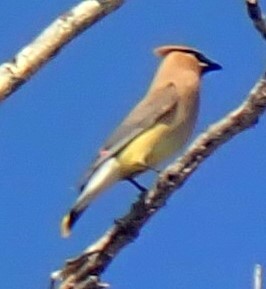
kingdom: Animalia
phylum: Chordata
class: Aves
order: Passeriformes
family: Bombycillidae
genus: Bombycilla
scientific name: Bombycilla cedrorum
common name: Cedar waxwing
